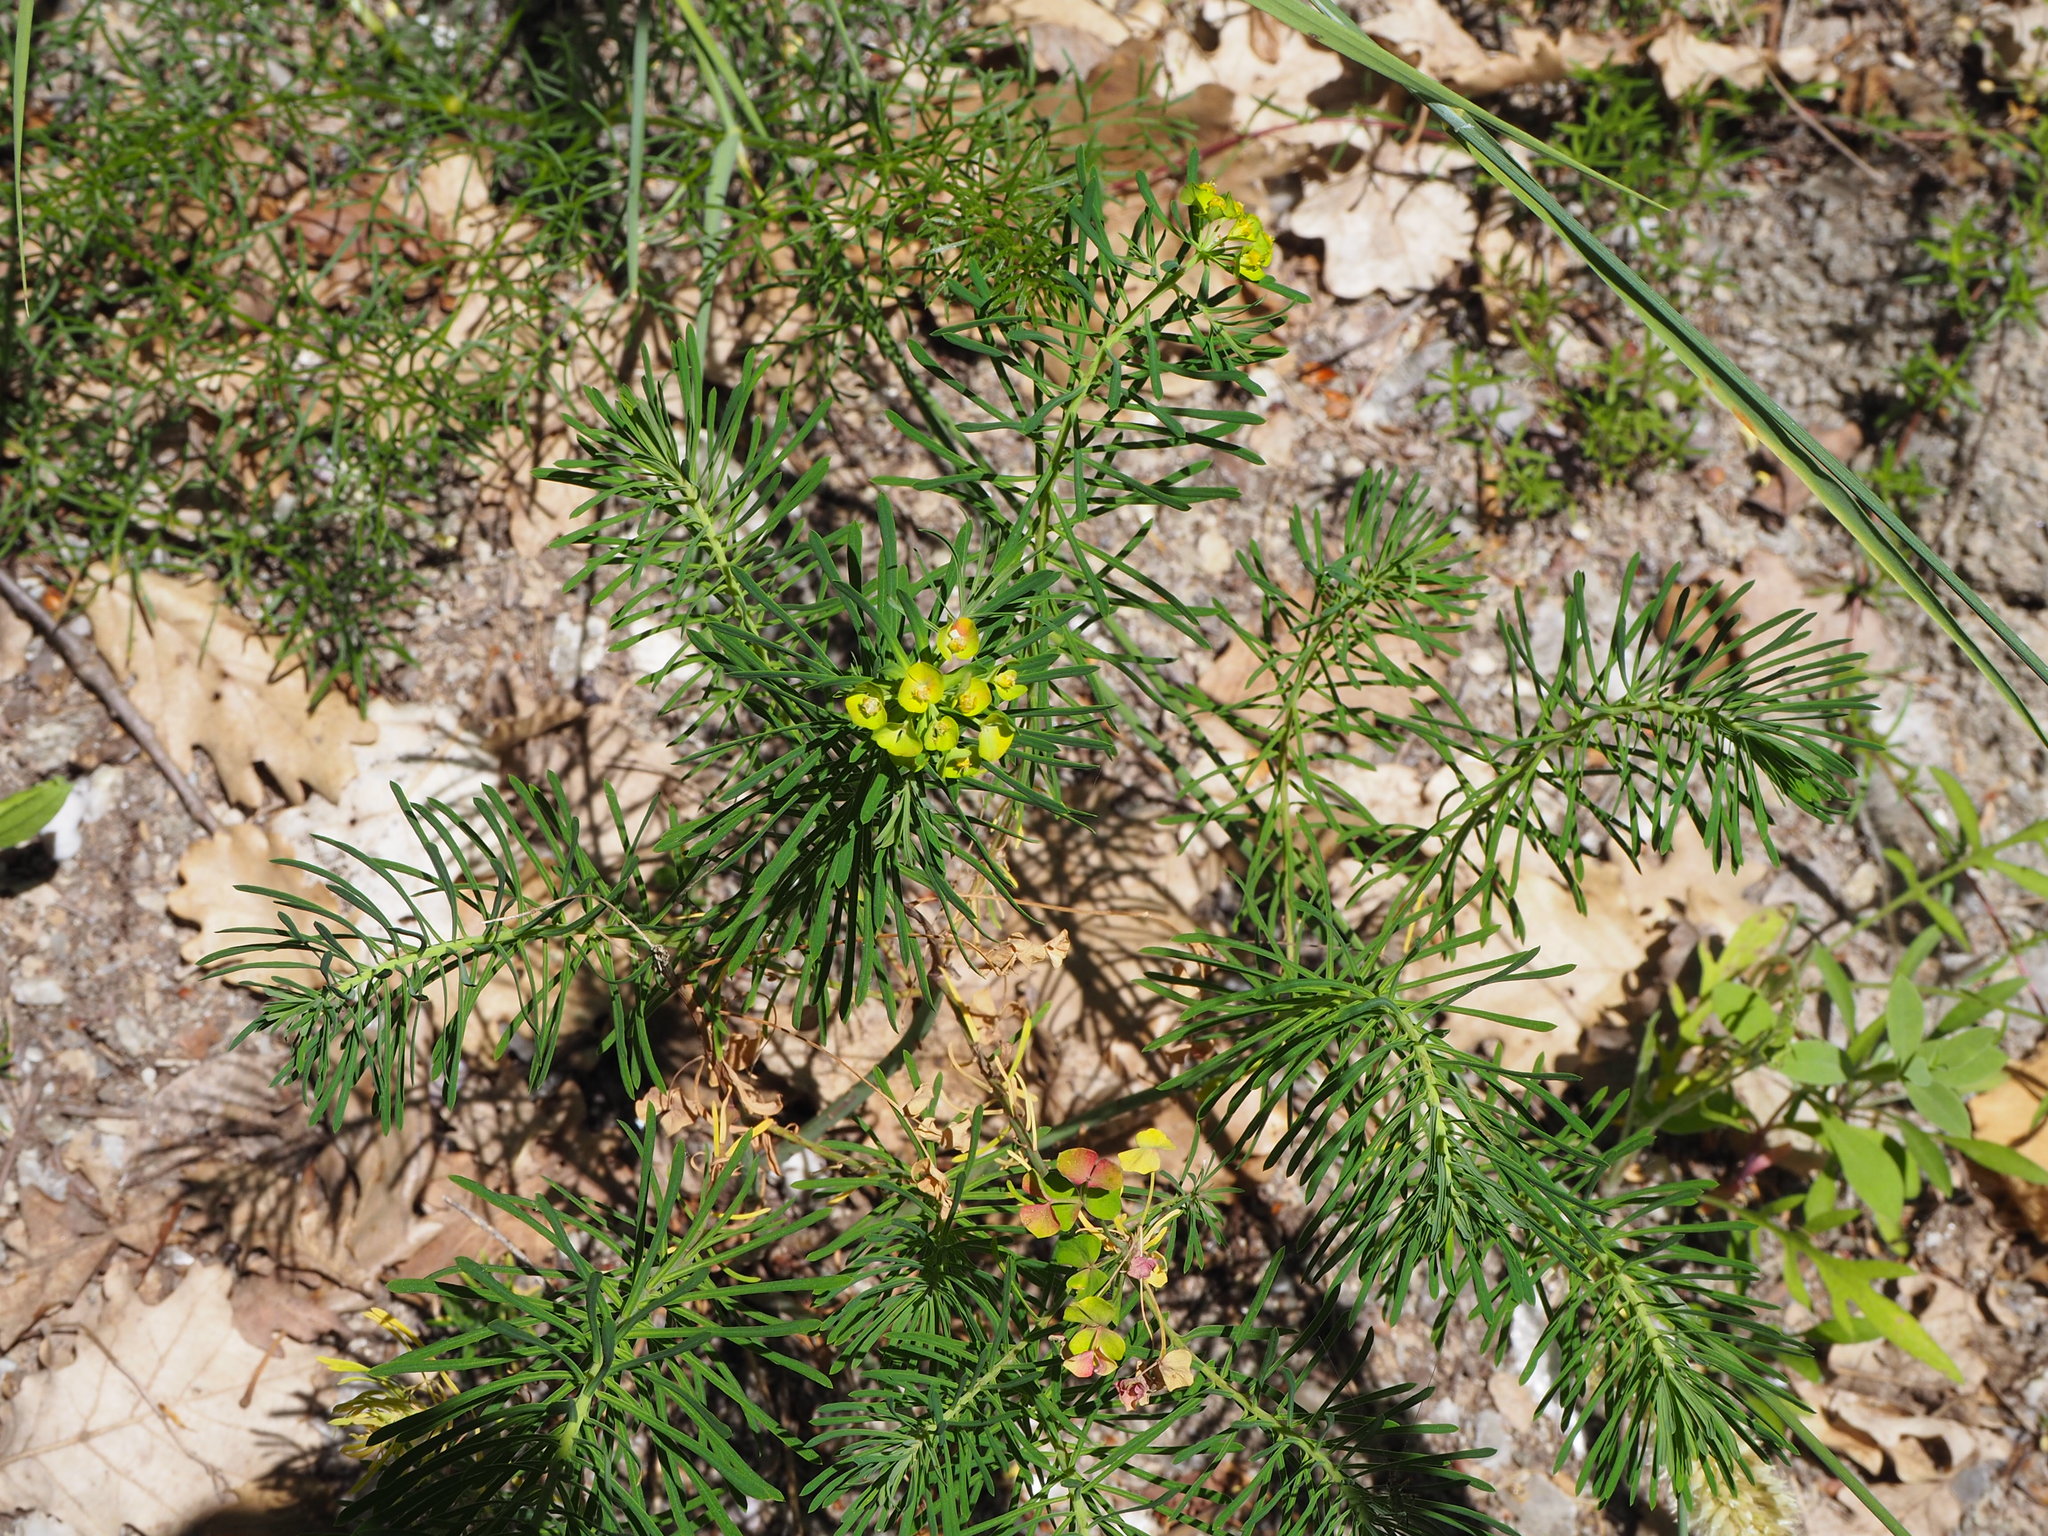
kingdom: Plantae
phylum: Tracheophyta
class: Magnoliopsida
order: Malpighiales
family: Euphorbiaceae
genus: Euphorbia
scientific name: Euphorbia cyparissias
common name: Cypress spurge
